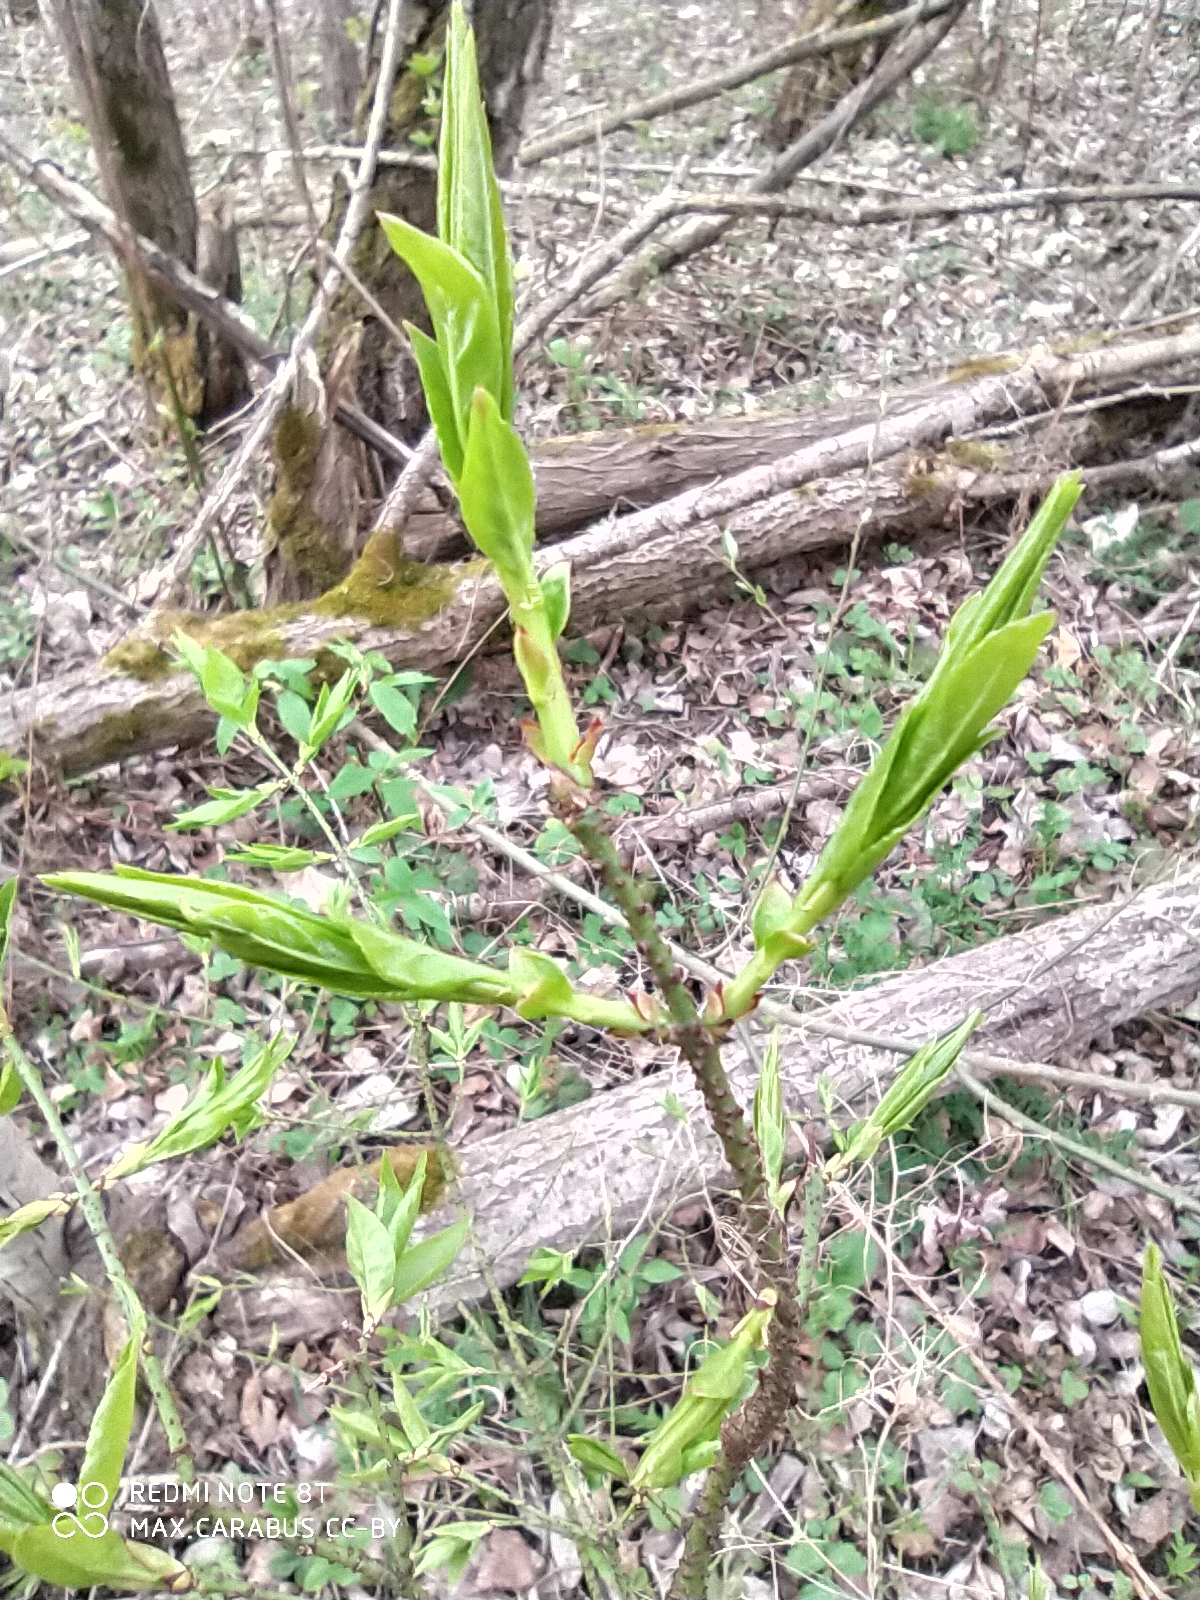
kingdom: Plantae
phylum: Tracheophyta
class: Magnoliopsida
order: Celastrales
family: Celastraceae
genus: Euonymus
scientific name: Euonymus verrucosus
